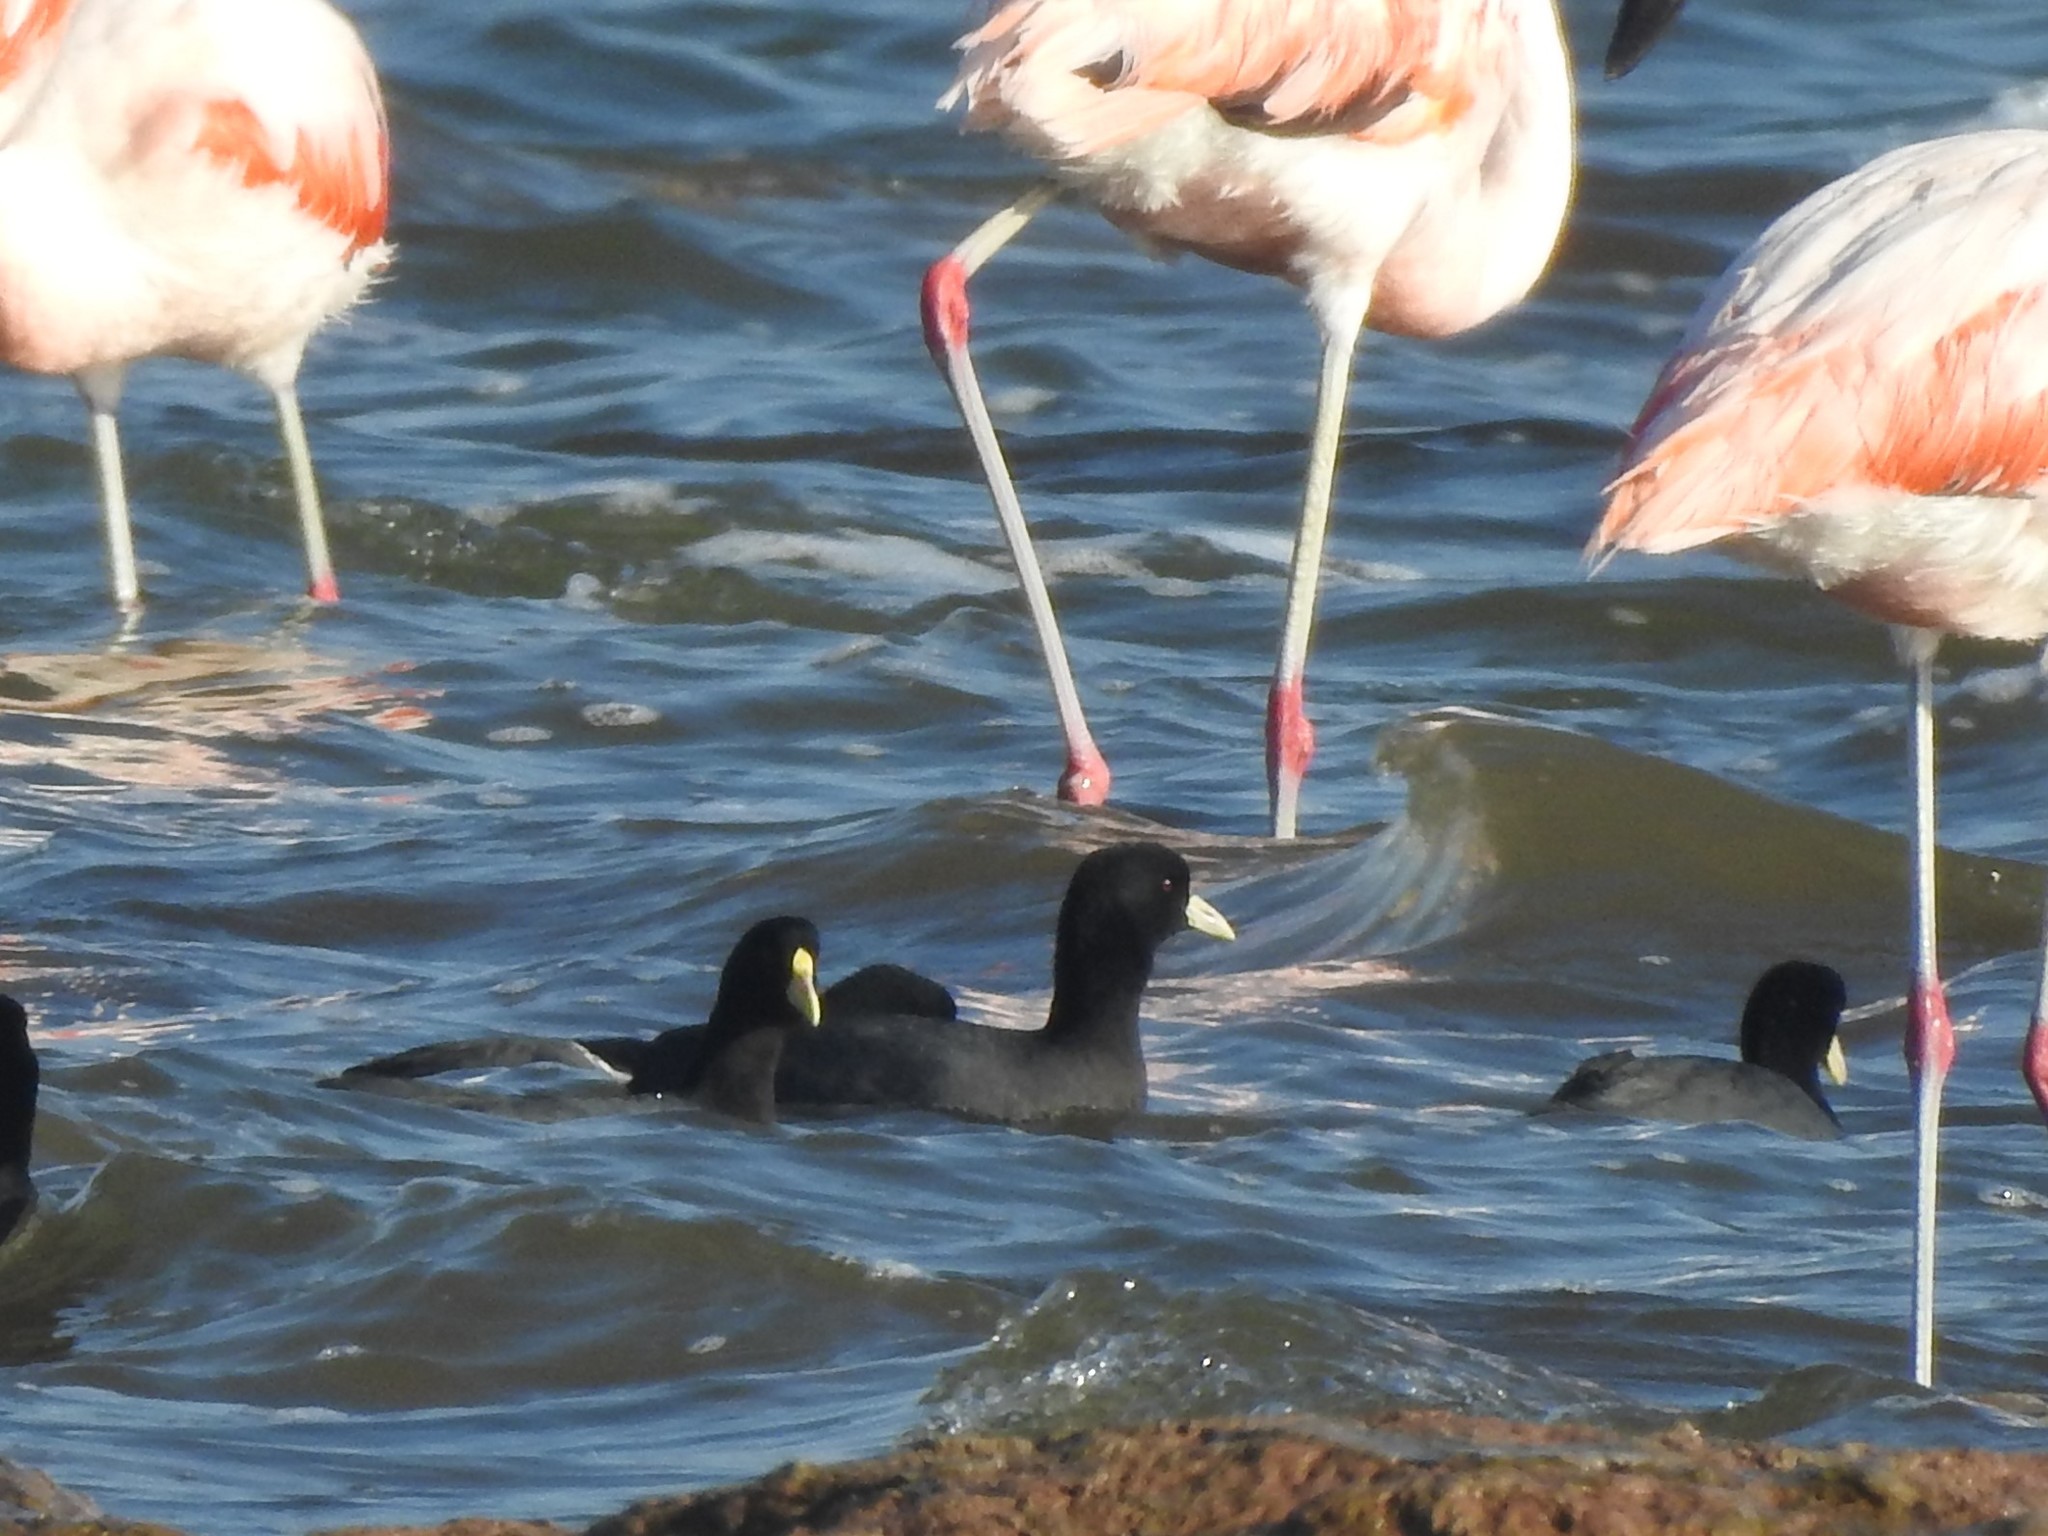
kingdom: Animalia
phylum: Chordata
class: Aves
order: Gruiformes
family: Rallidae
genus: Fulica
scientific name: Fulica leucoptera
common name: White-winged coot
